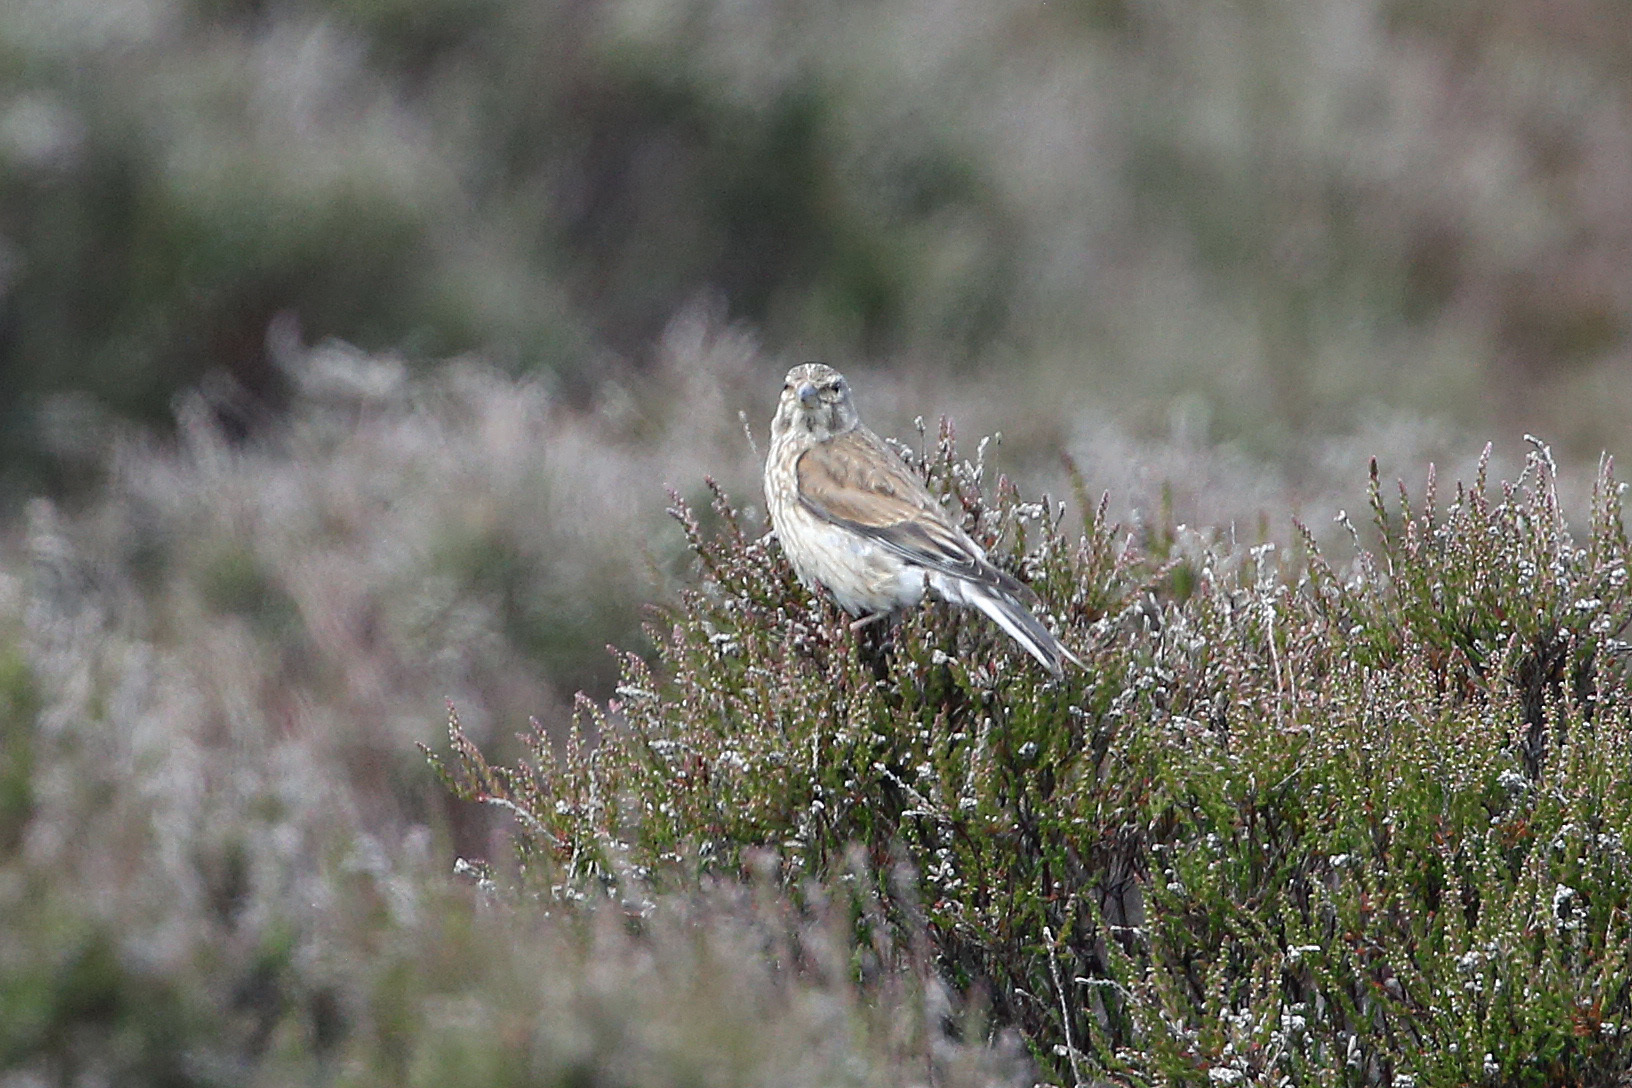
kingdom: Animalia
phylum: Chordata
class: Aves
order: Passeriformes
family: Fringillidae
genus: Linaria
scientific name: Linaria cannabina
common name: Common linnet
